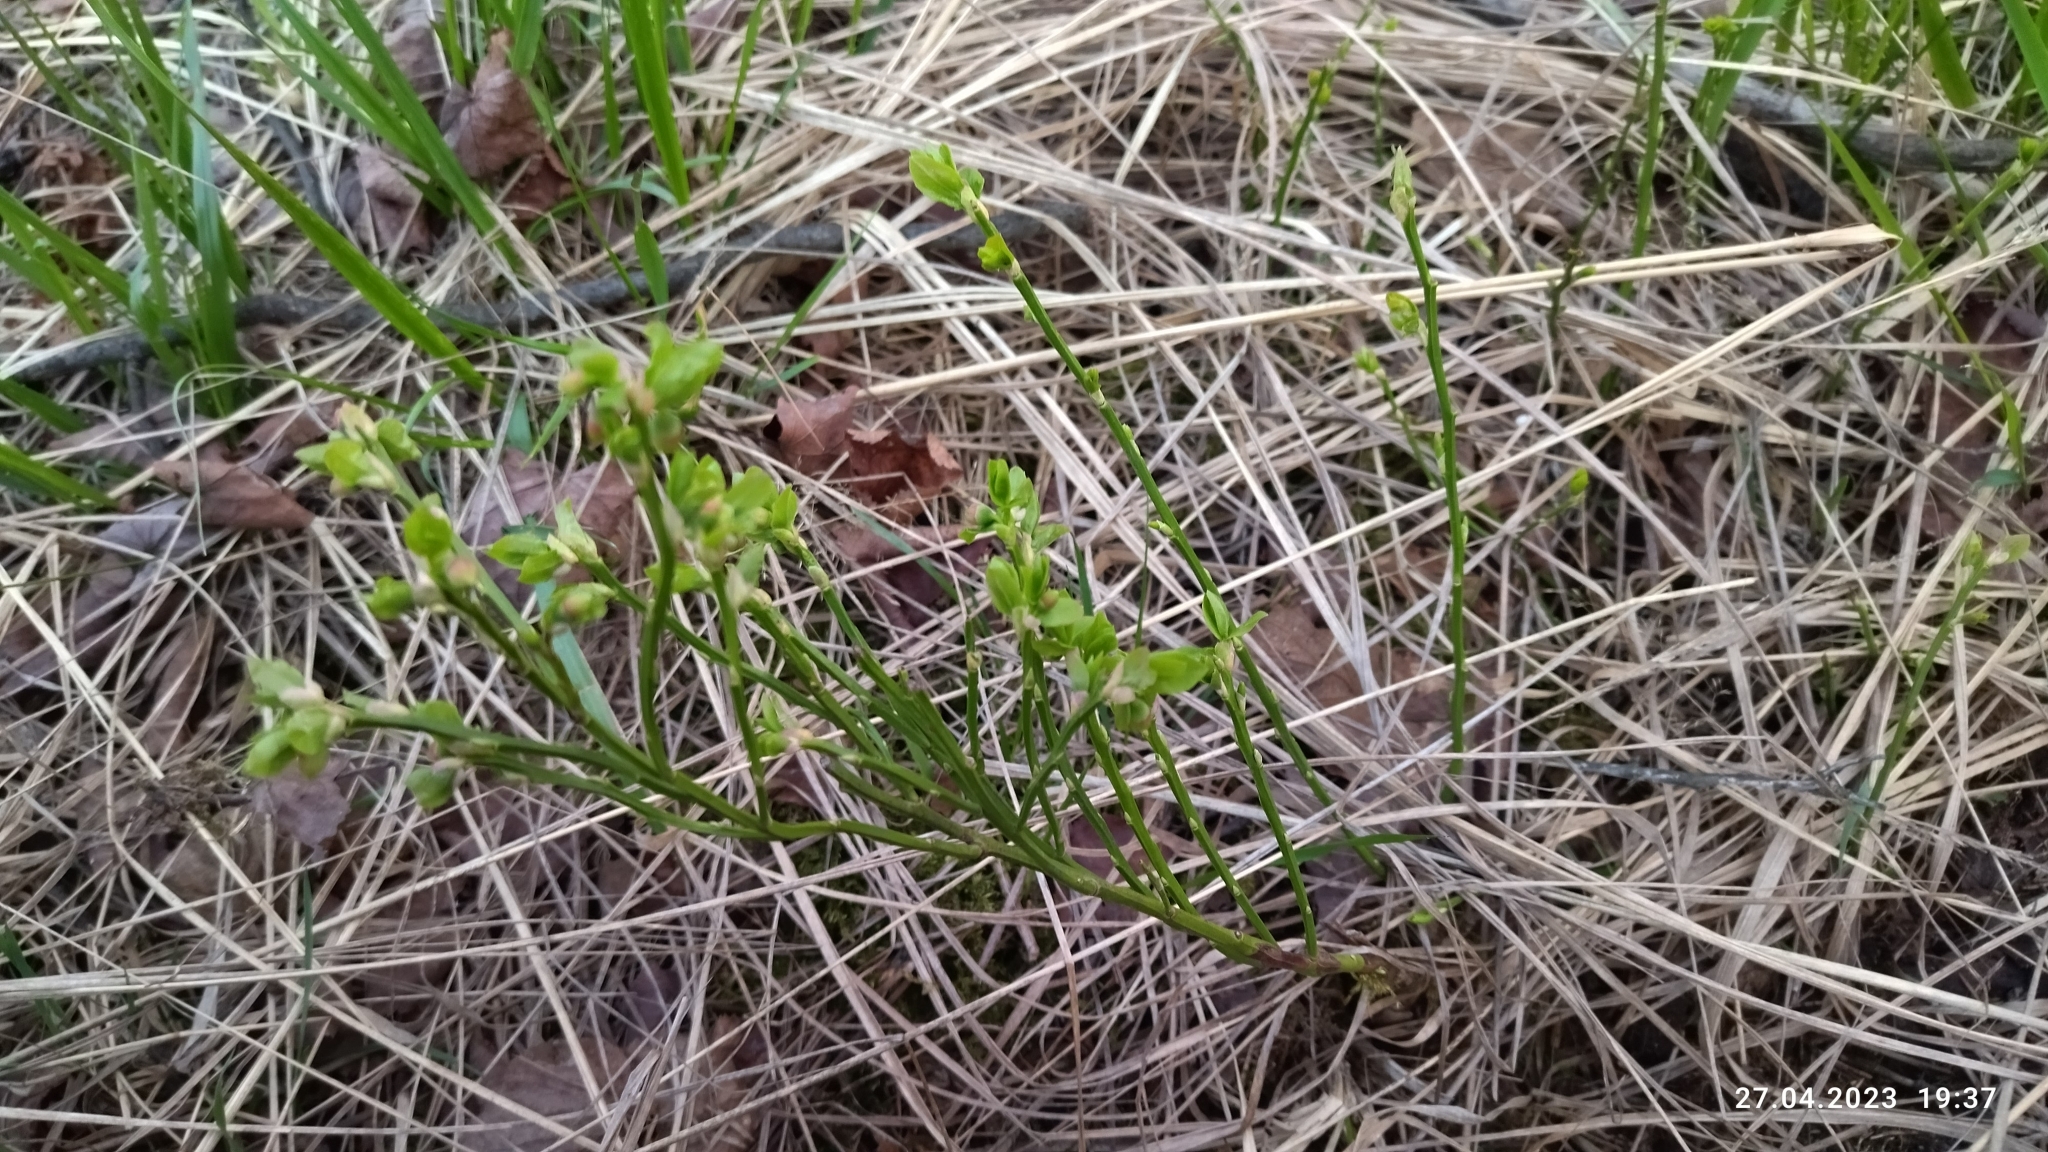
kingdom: Plantae
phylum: Tracheophyta
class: Magnoliopsida
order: Ericales
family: Ericaceae
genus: Vaccinium
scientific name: Vaccinium myrtillus
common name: Bilberry
